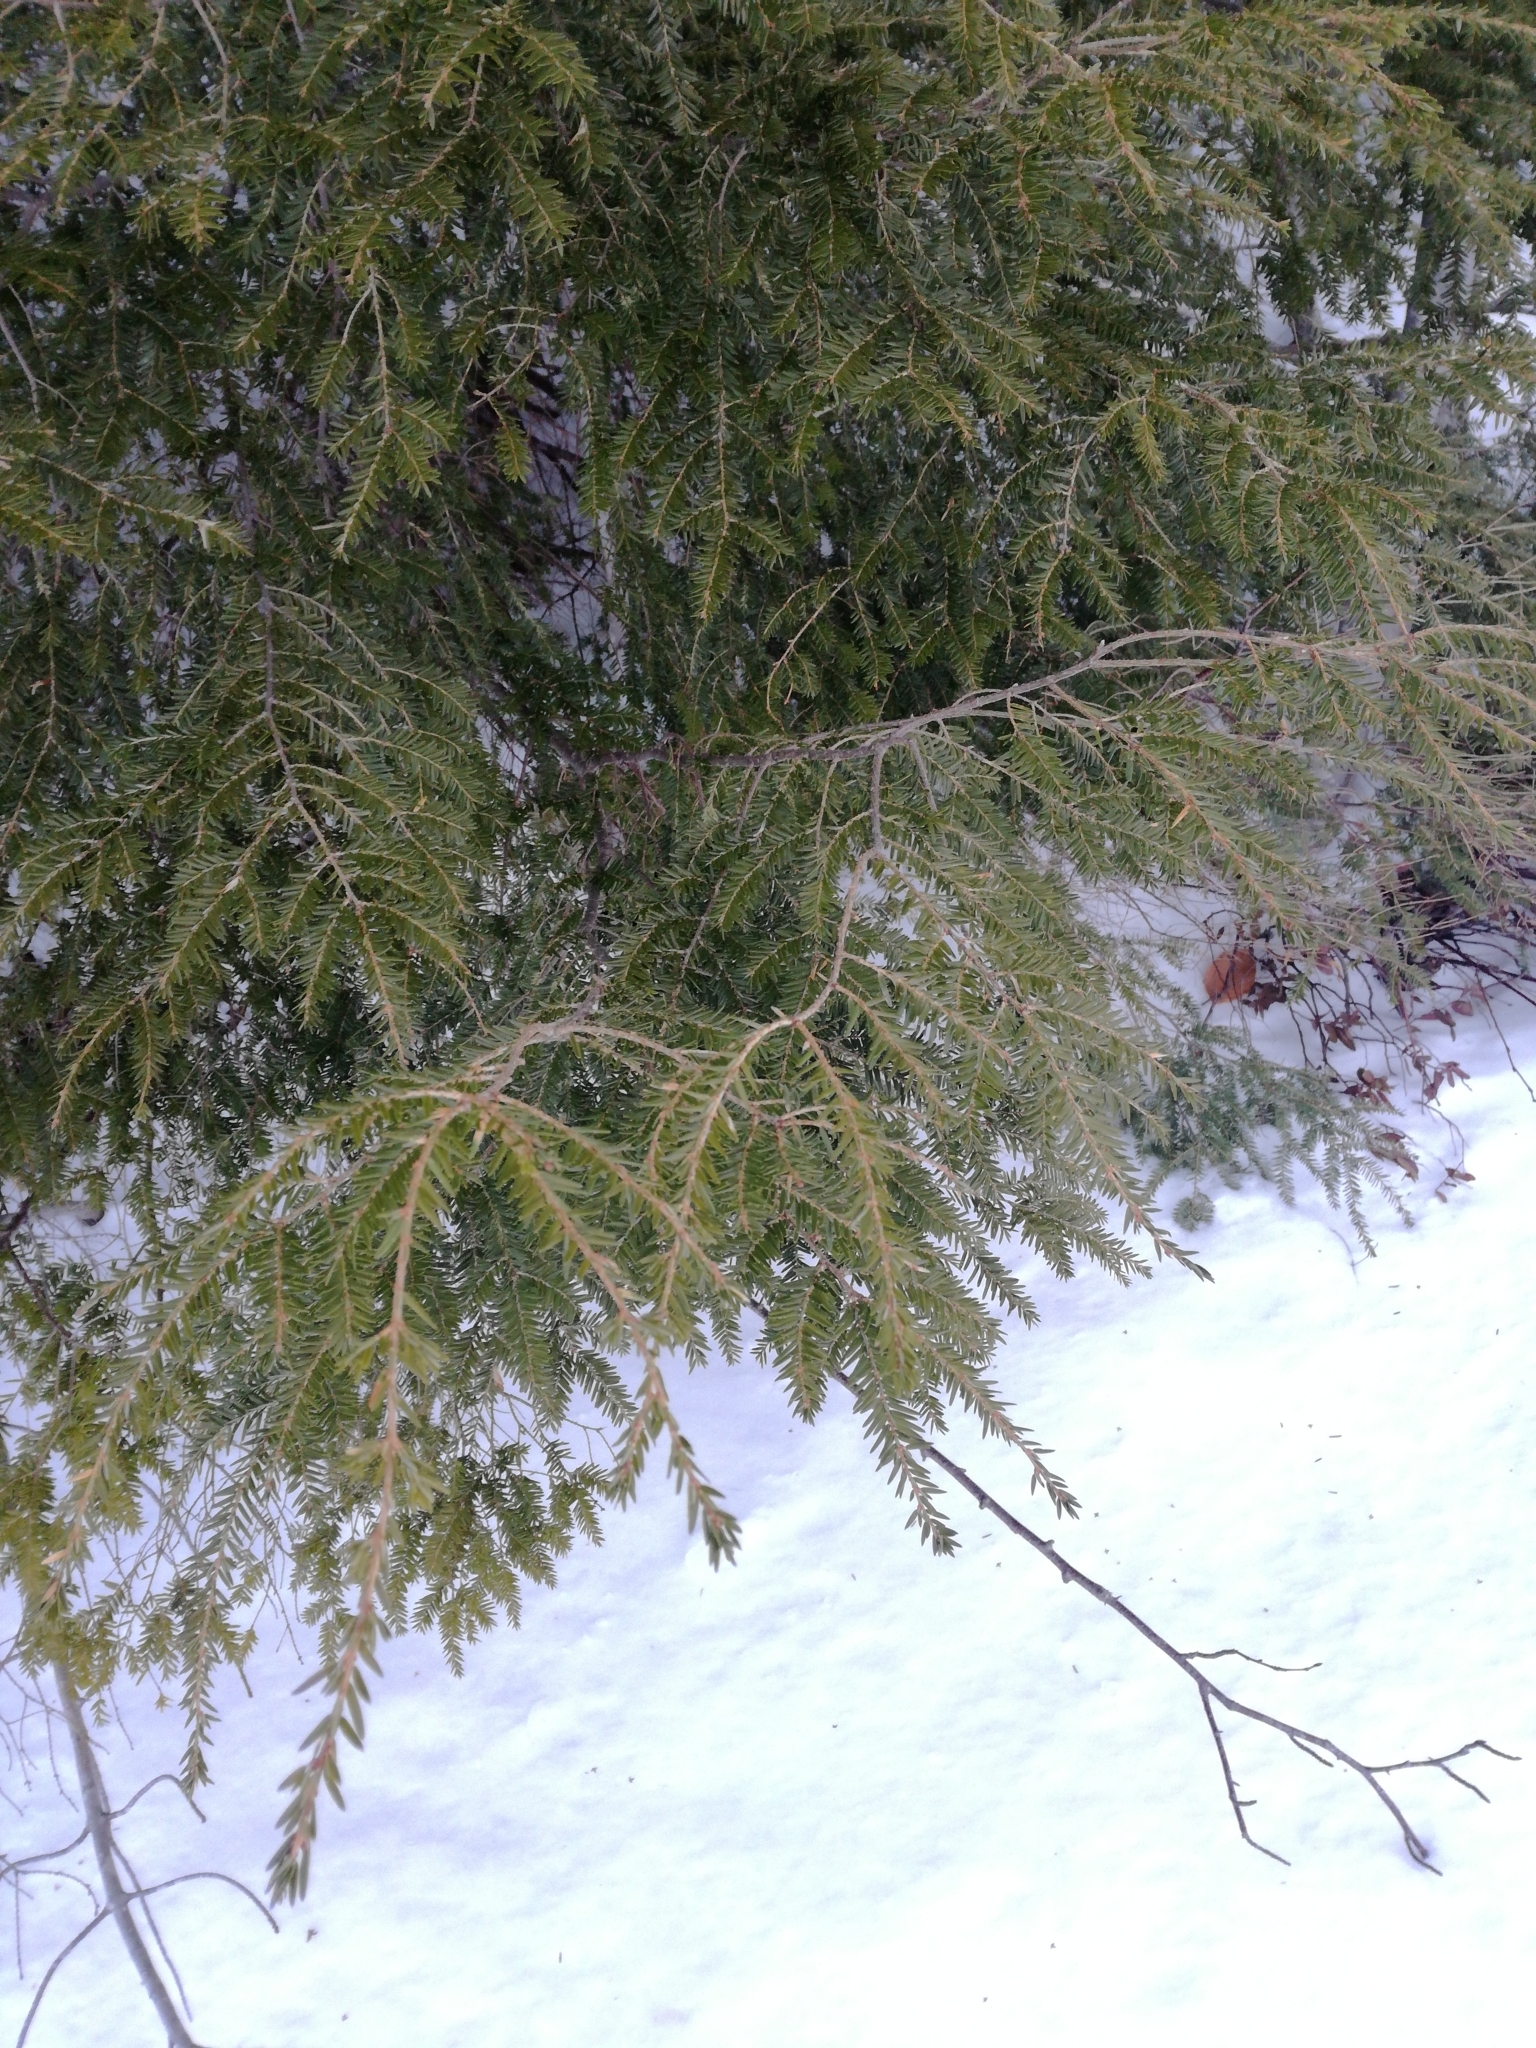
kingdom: Plantae
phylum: Tracheophyta
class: Pinopsida
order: Pinales
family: Pinaceae
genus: Tsuga
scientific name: Tsuga canadensis
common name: Eastern hemlock
